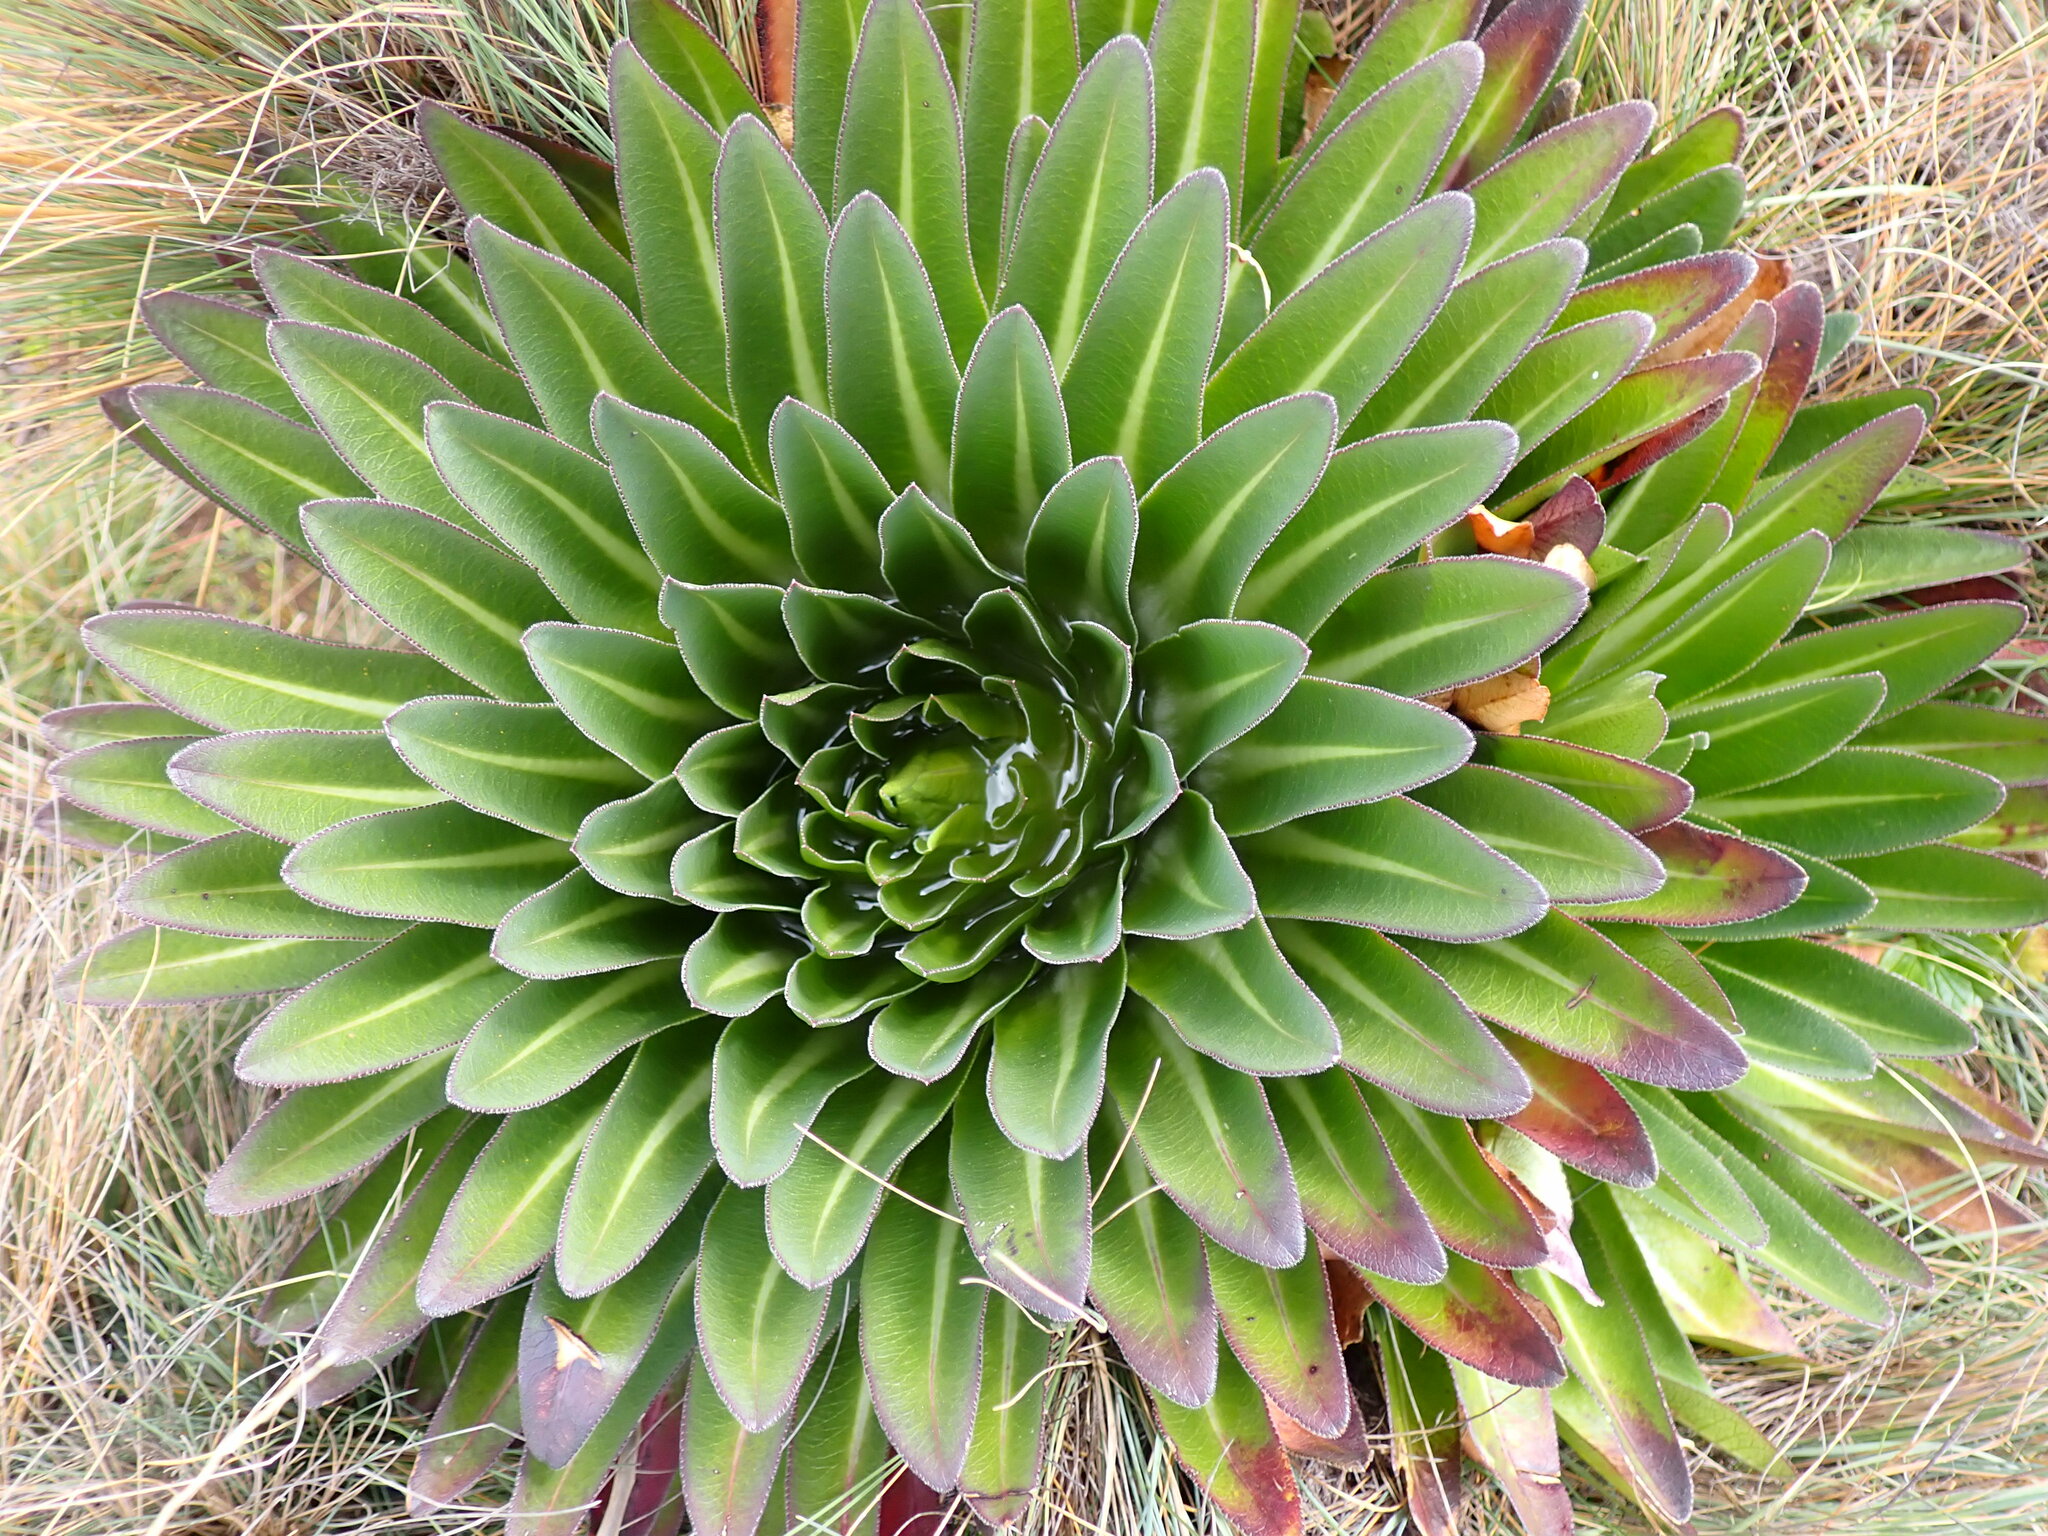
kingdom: Plantae
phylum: Tracheophyta
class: Magnoliopsida
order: Asterales
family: Campanulaceae
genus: Lobelia
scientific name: Lobelia deckenii
